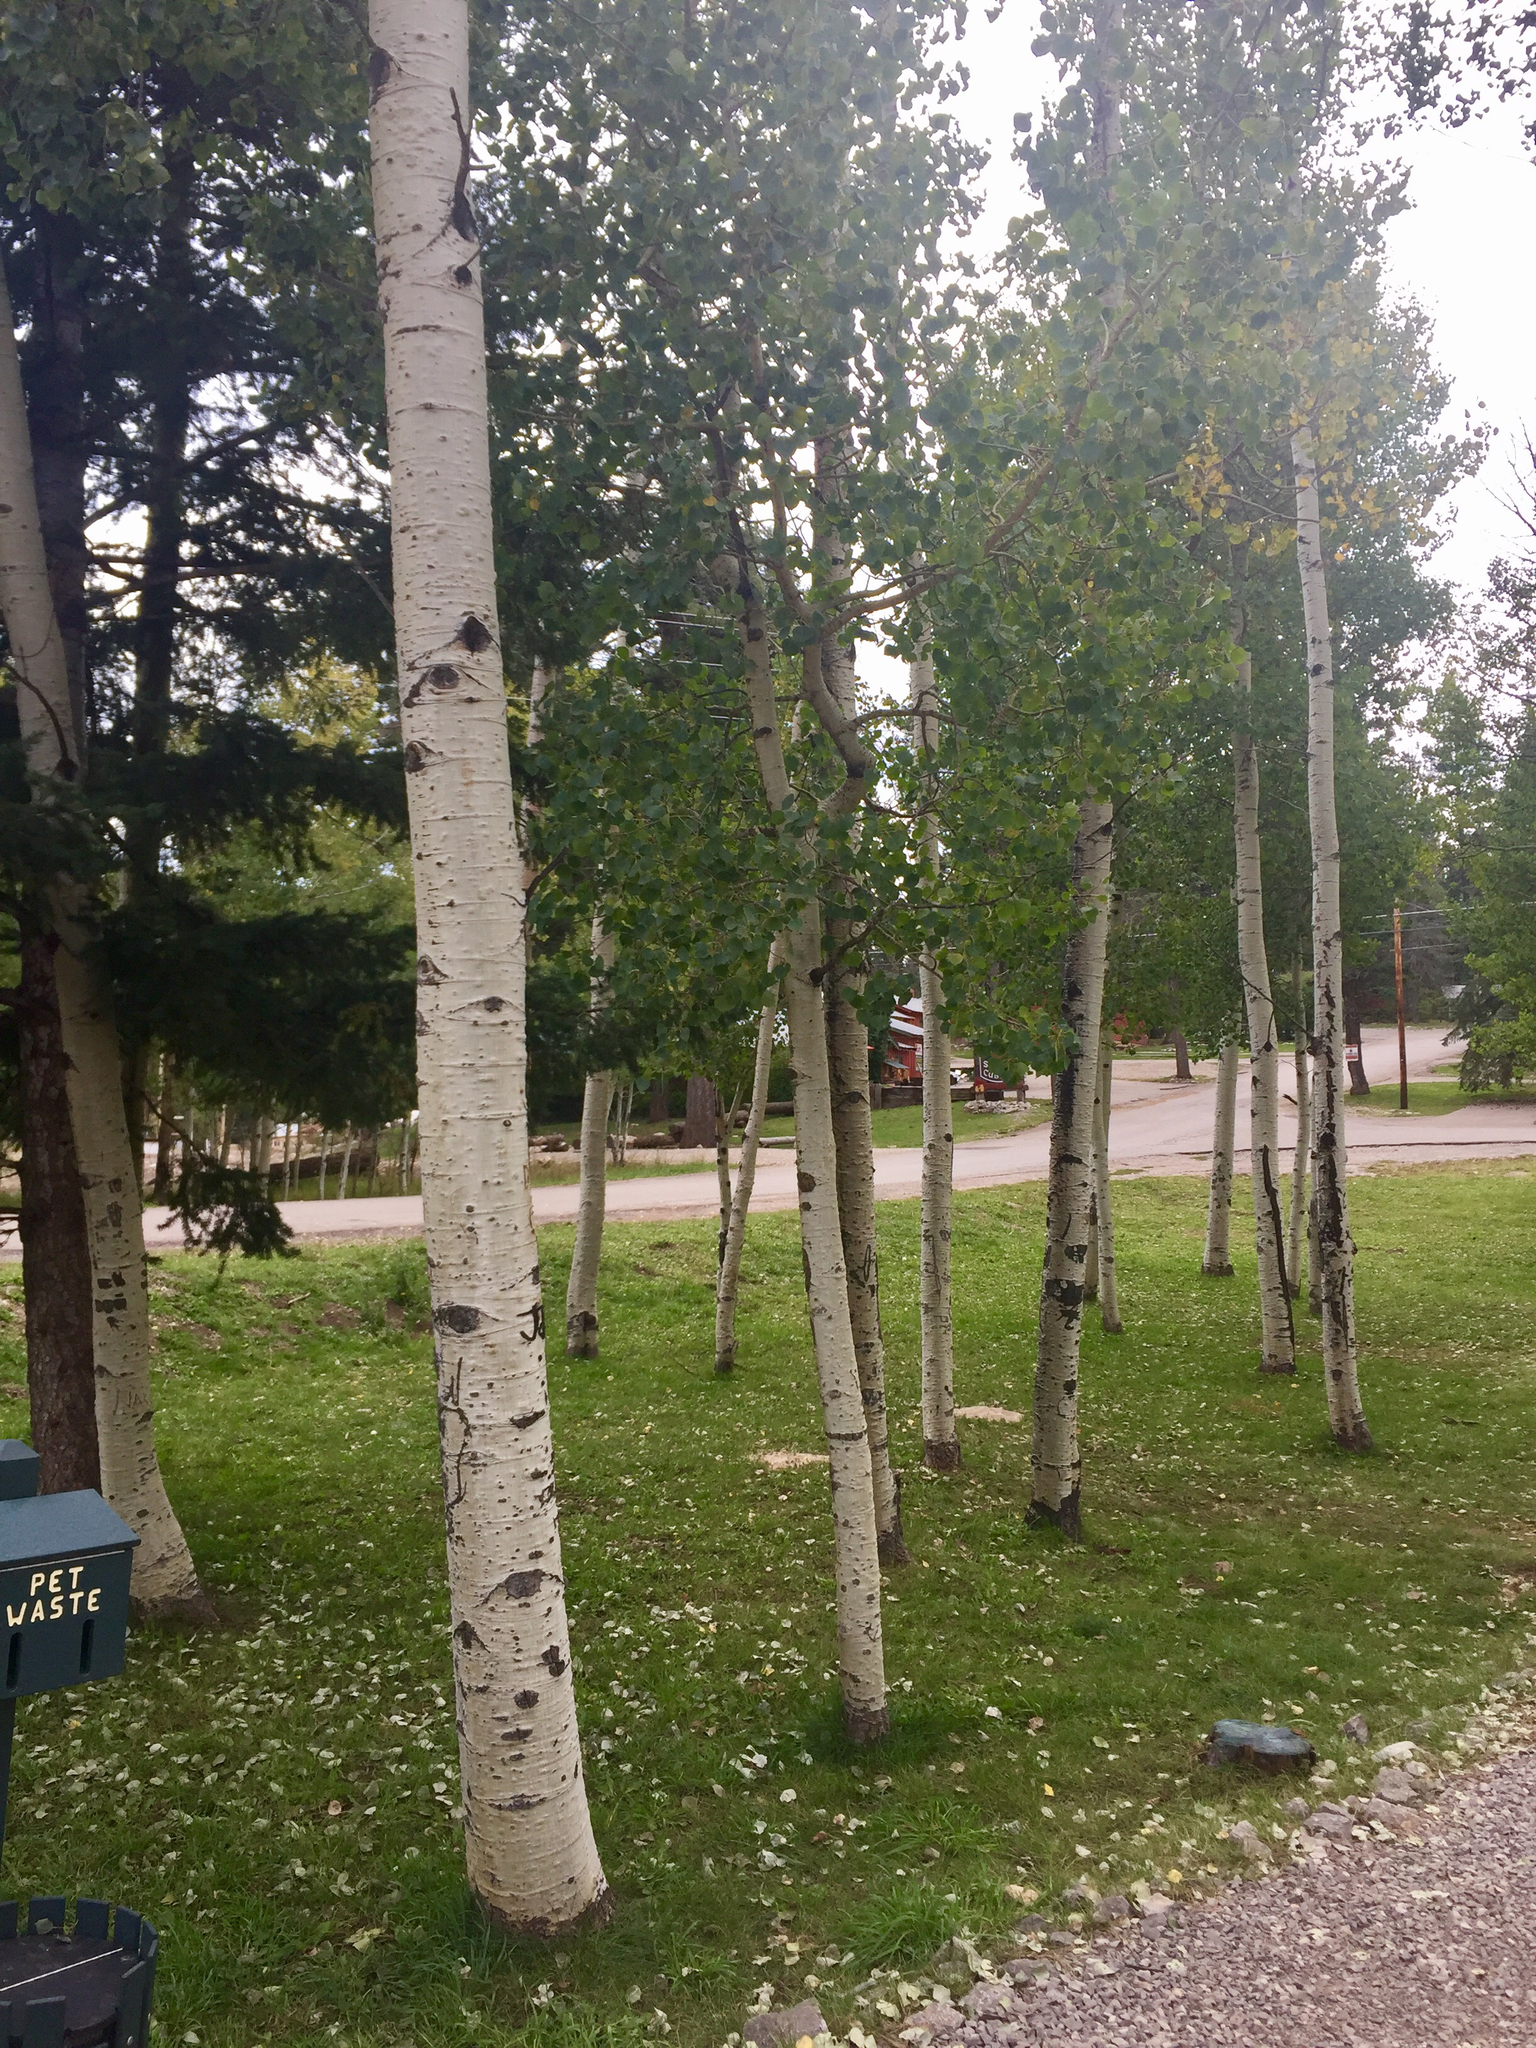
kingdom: Plantae
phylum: Tracheophyta
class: Magnoliopsida
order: Malpighiales
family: Salicaceae
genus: Populus
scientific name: Populus tremuloides
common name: Quaking aspen
